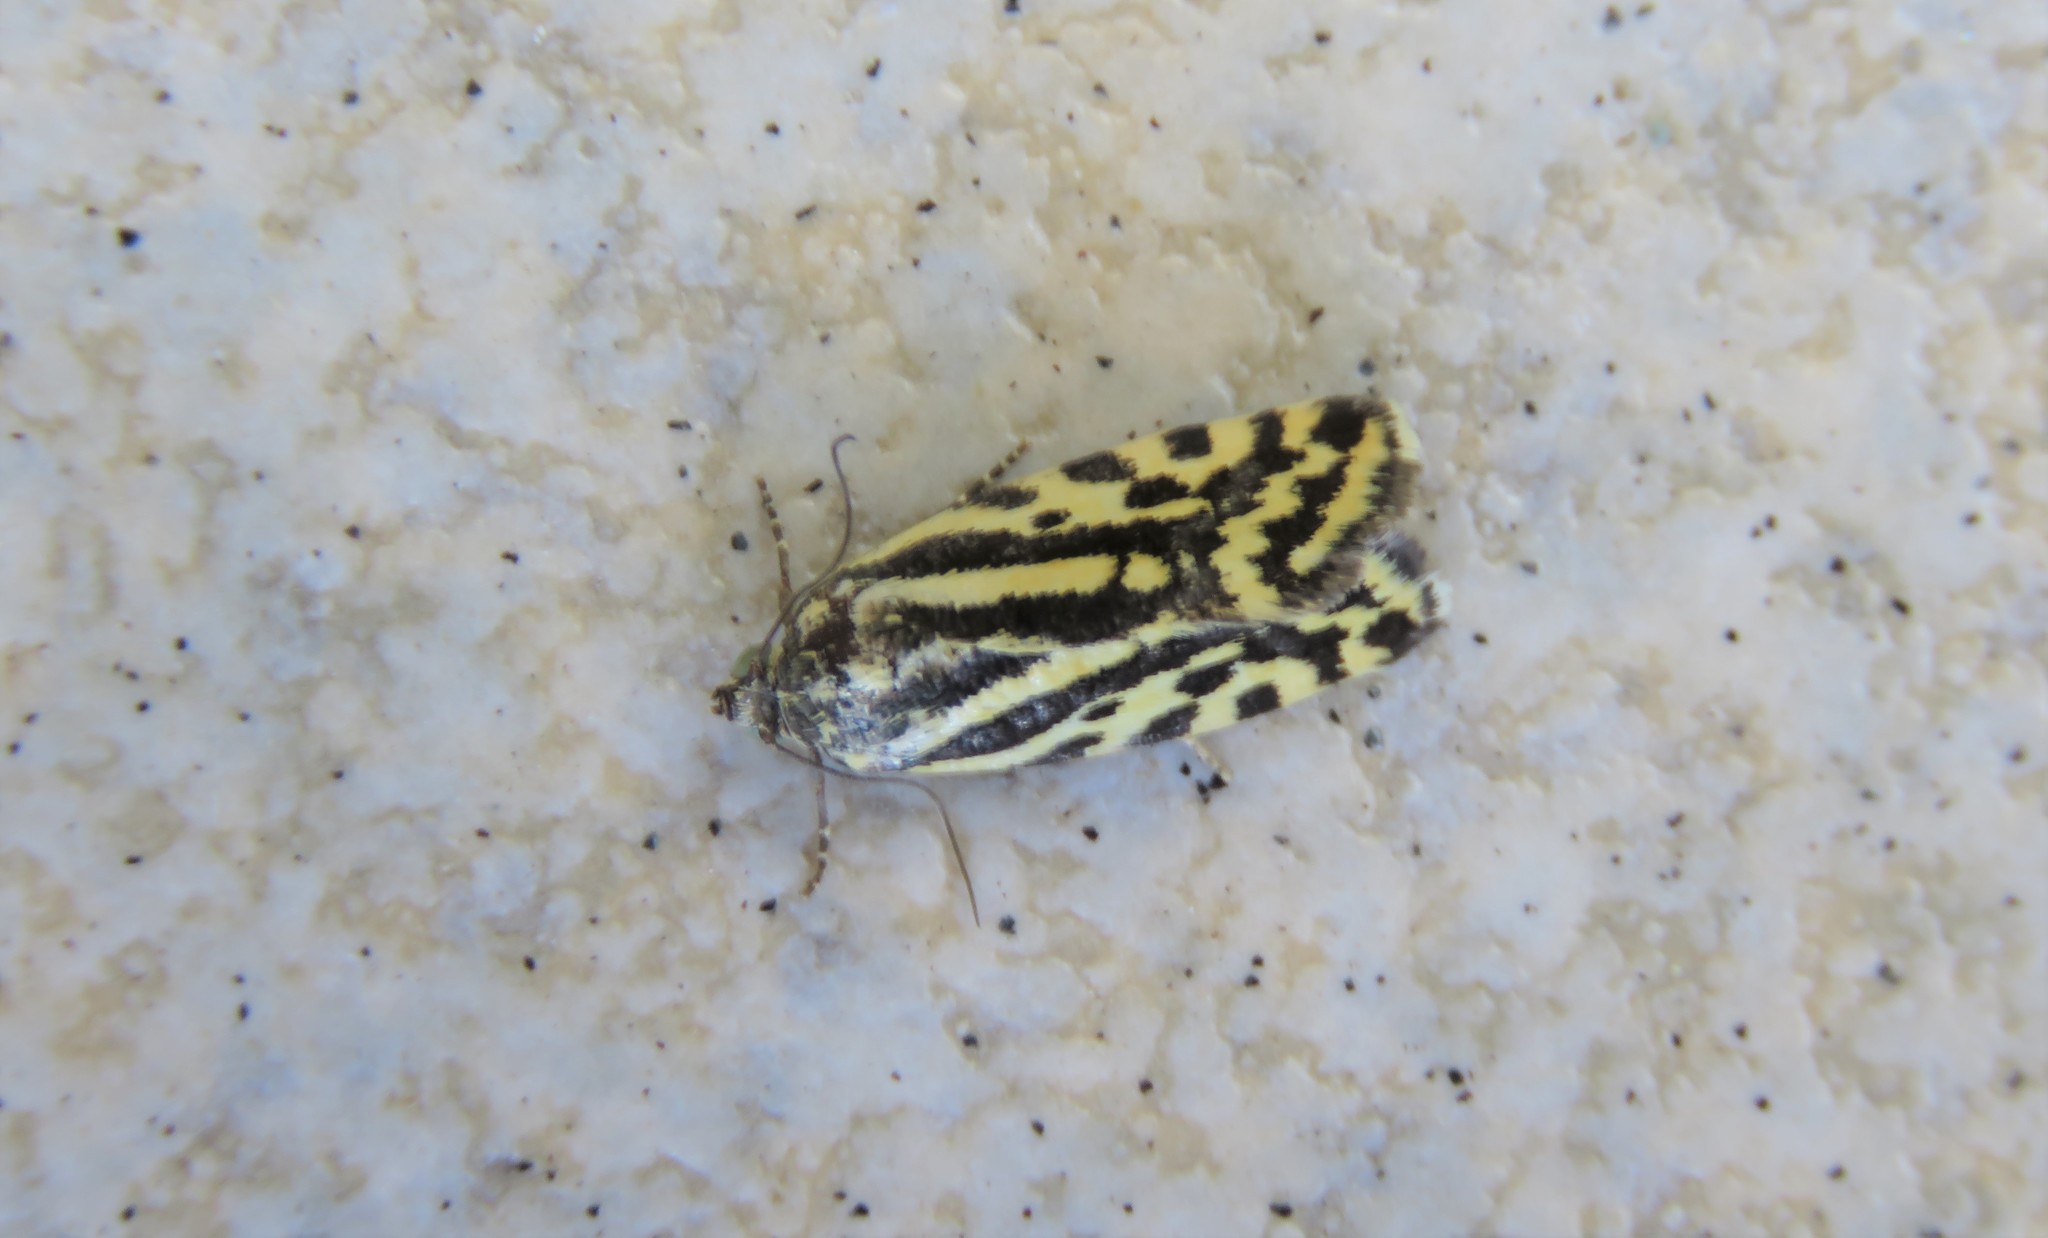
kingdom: Animalia
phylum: Arthropoda
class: Insecta
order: Lepidoptera
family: Noctuidae
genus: Acontia
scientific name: Acontia trabealis
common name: Spotted sulphur
